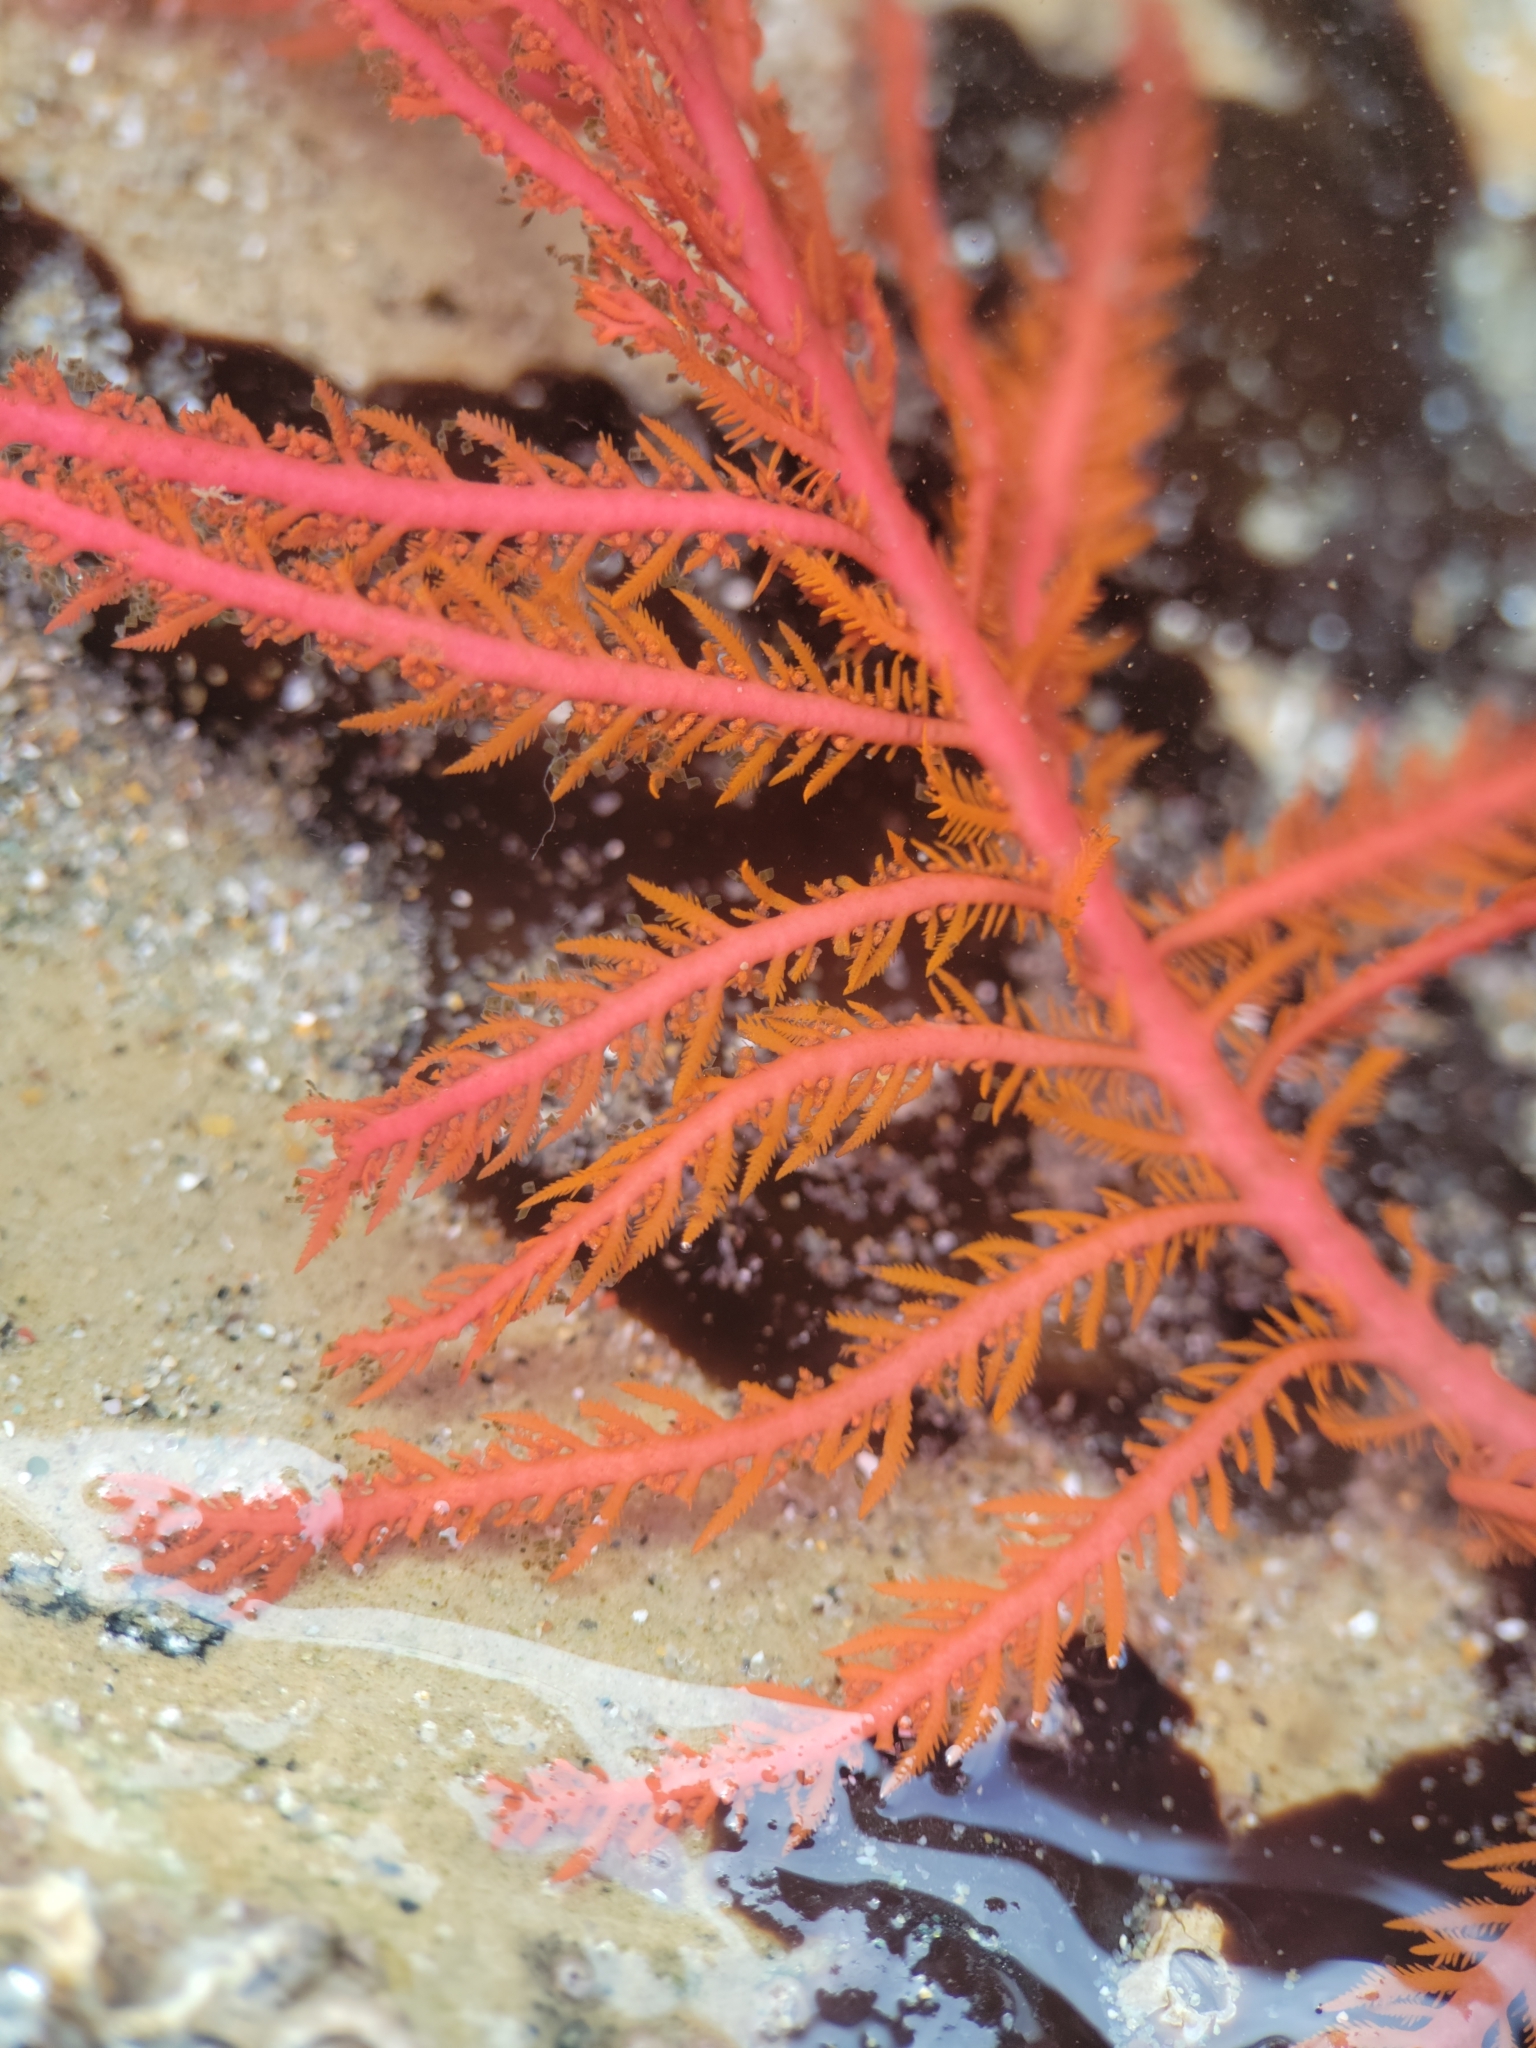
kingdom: Plantae
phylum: Rhodophyta
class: Florideophyceae
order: Ceramiales
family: Wrangeliaceae
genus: Ptilota
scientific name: Ptilota filicina
